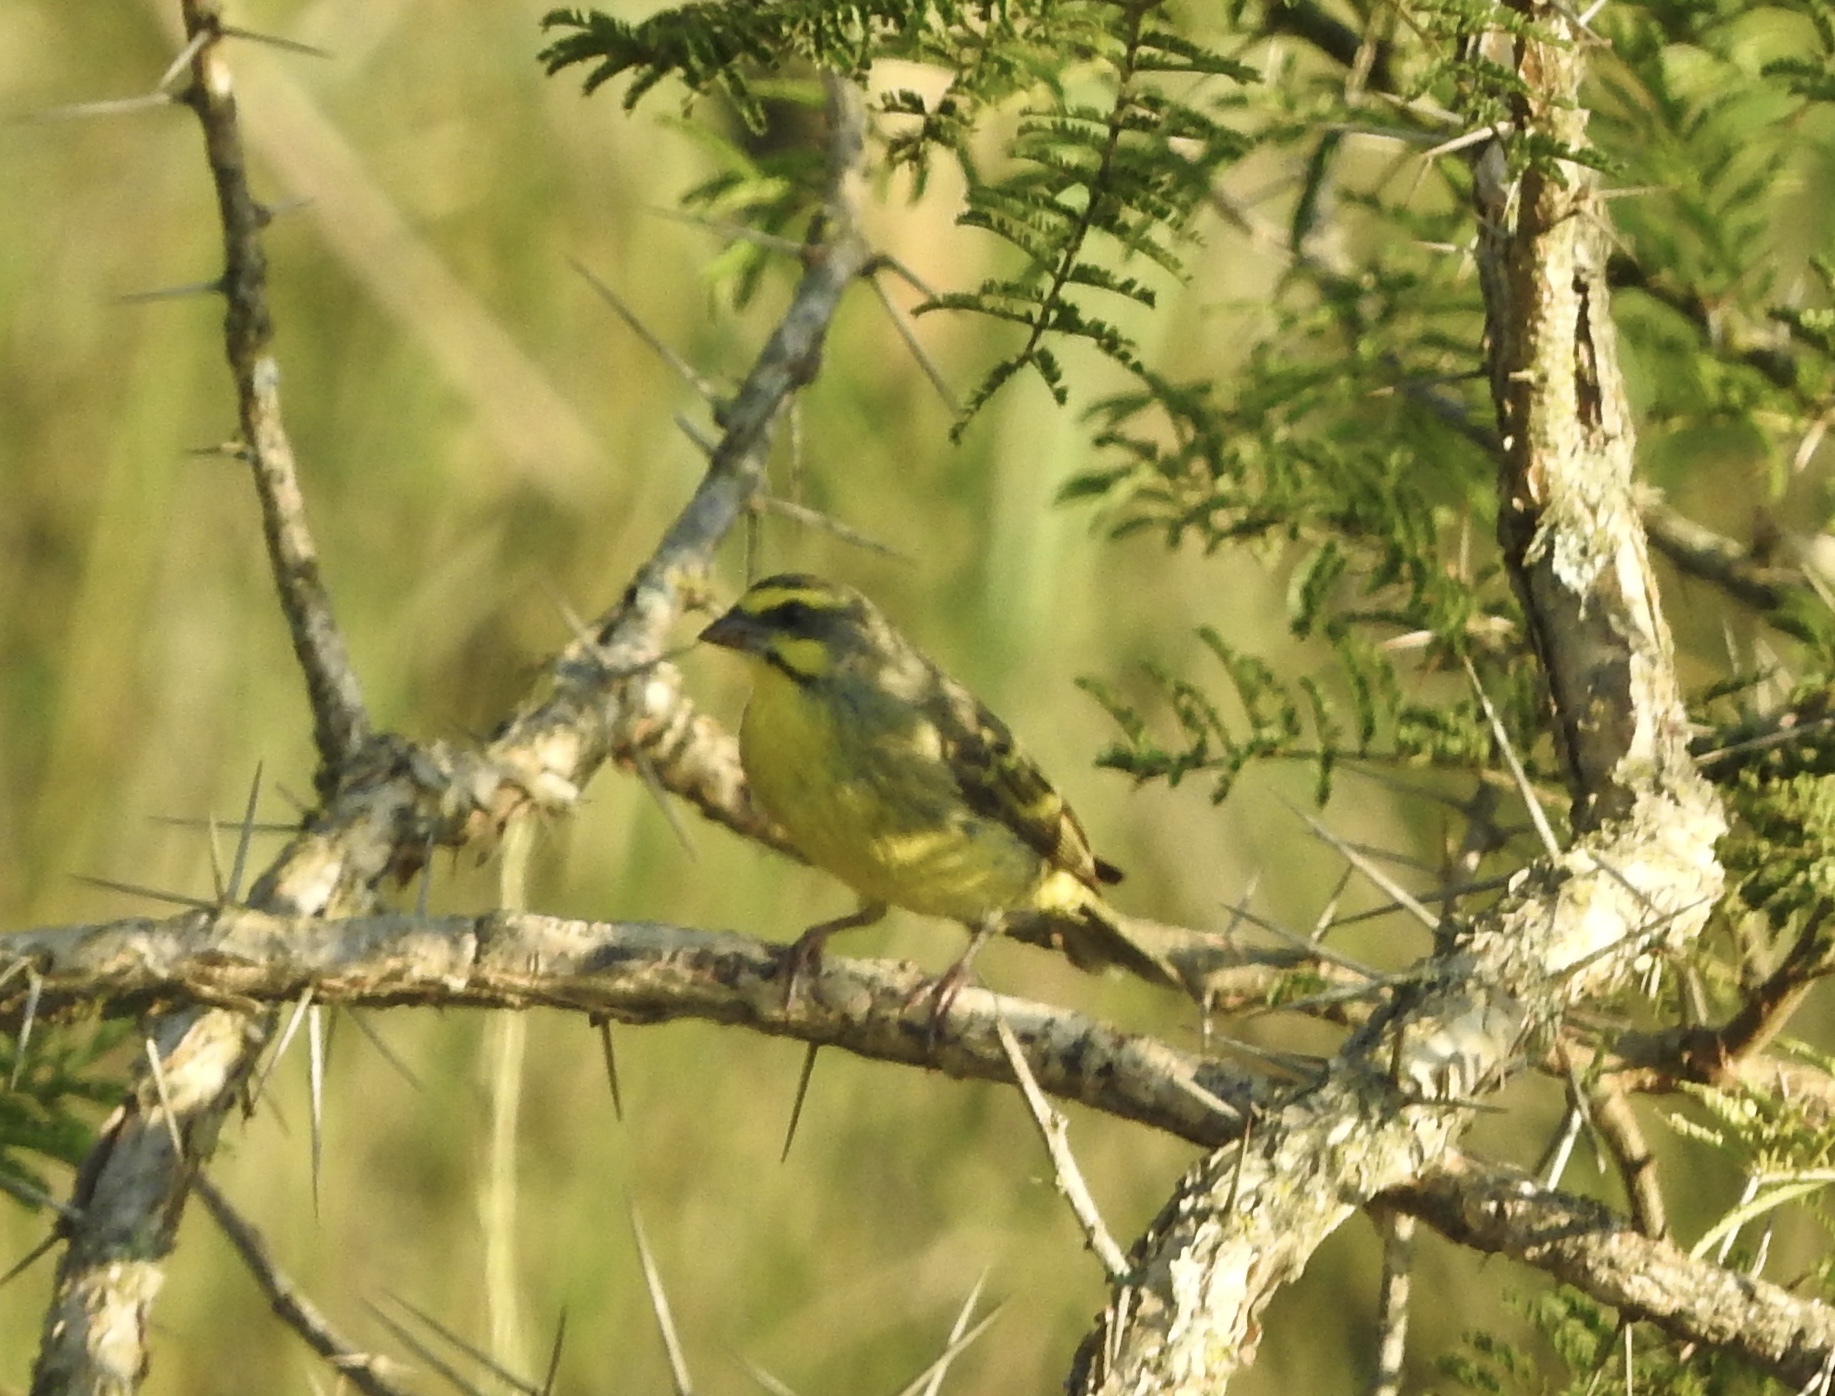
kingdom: Animalia
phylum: Chordata
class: Aves
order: Passeriformes
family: Fringillidae
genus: Crithagra
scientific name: Crithagra mozambica
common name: Yellow-fronted canary
